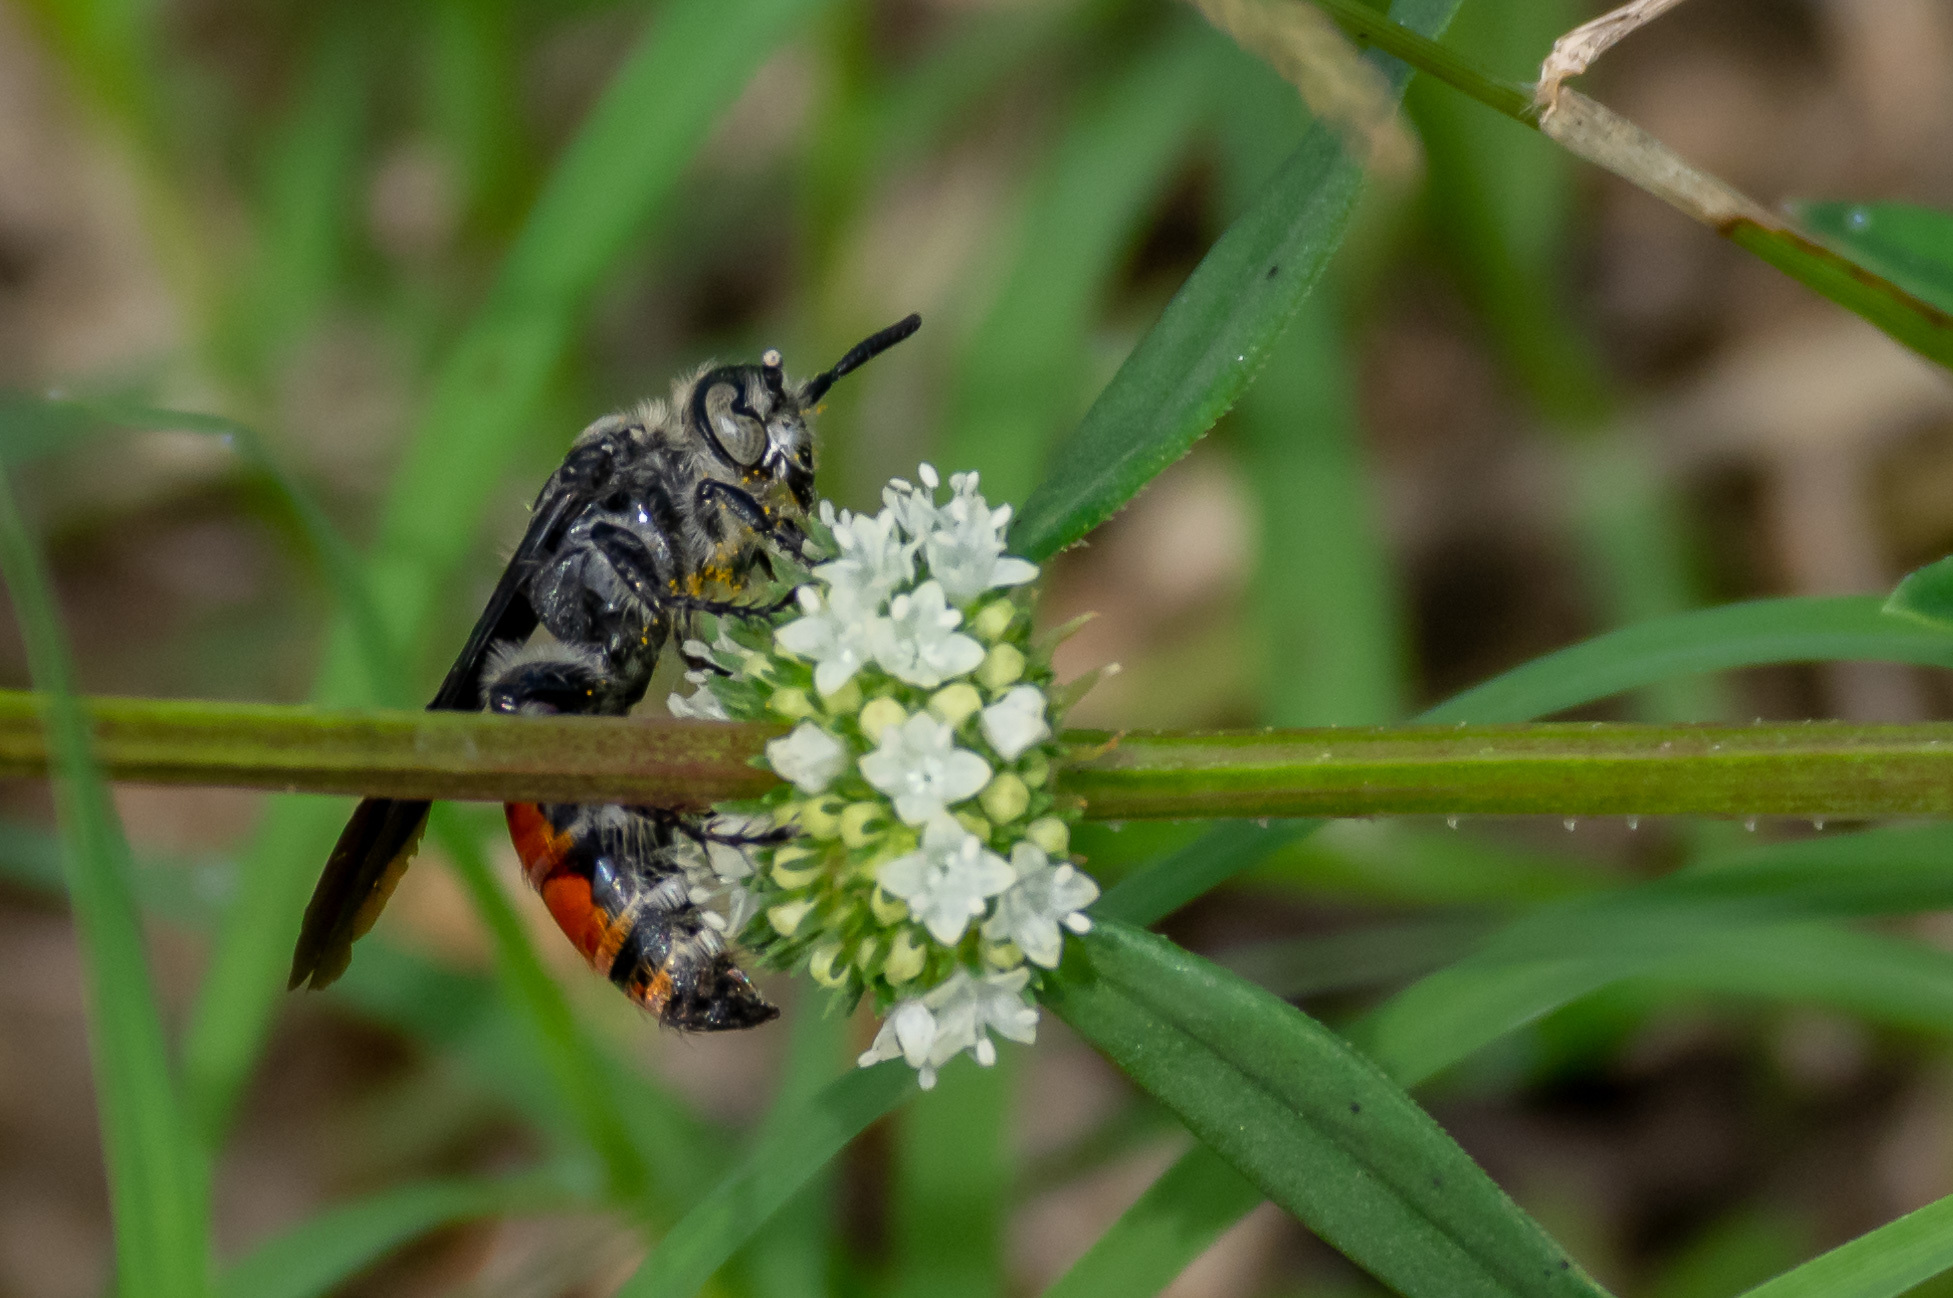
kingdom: Animalia
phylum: Arthropoda
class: Insecta
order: Hymenoptera
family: Scoliidae
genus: Dielis
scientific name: Dielis dorsata
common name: Scoliid wasp
